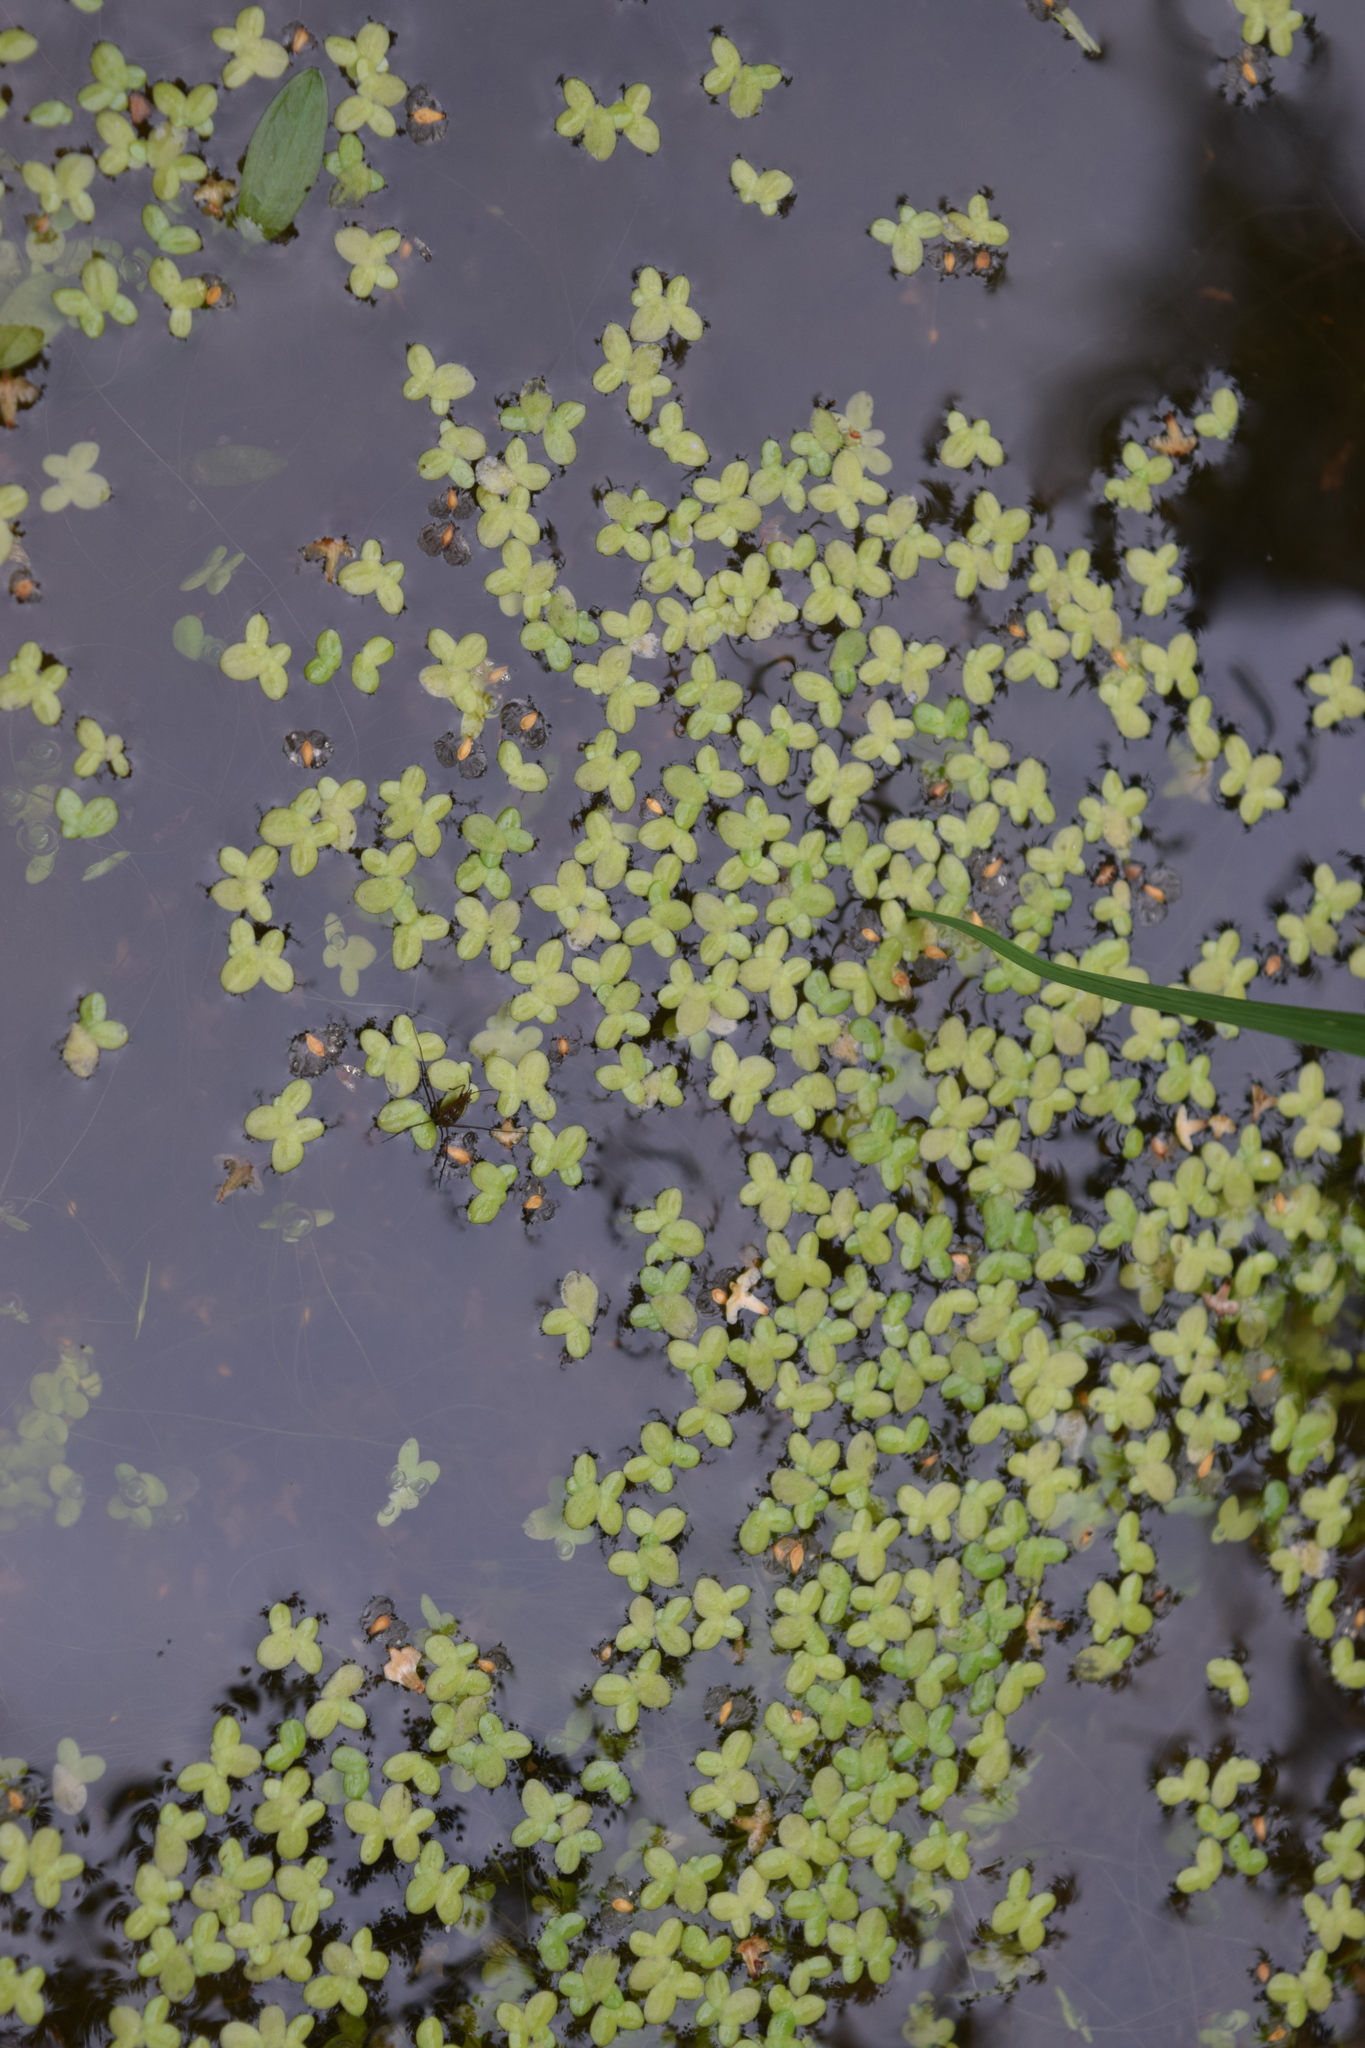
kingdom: Plantae
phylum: Tracheophyta
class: Liliopsida
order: Alismatales
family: Araceae
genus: Lemna
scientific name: Lemna minor
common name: Common duckweed
